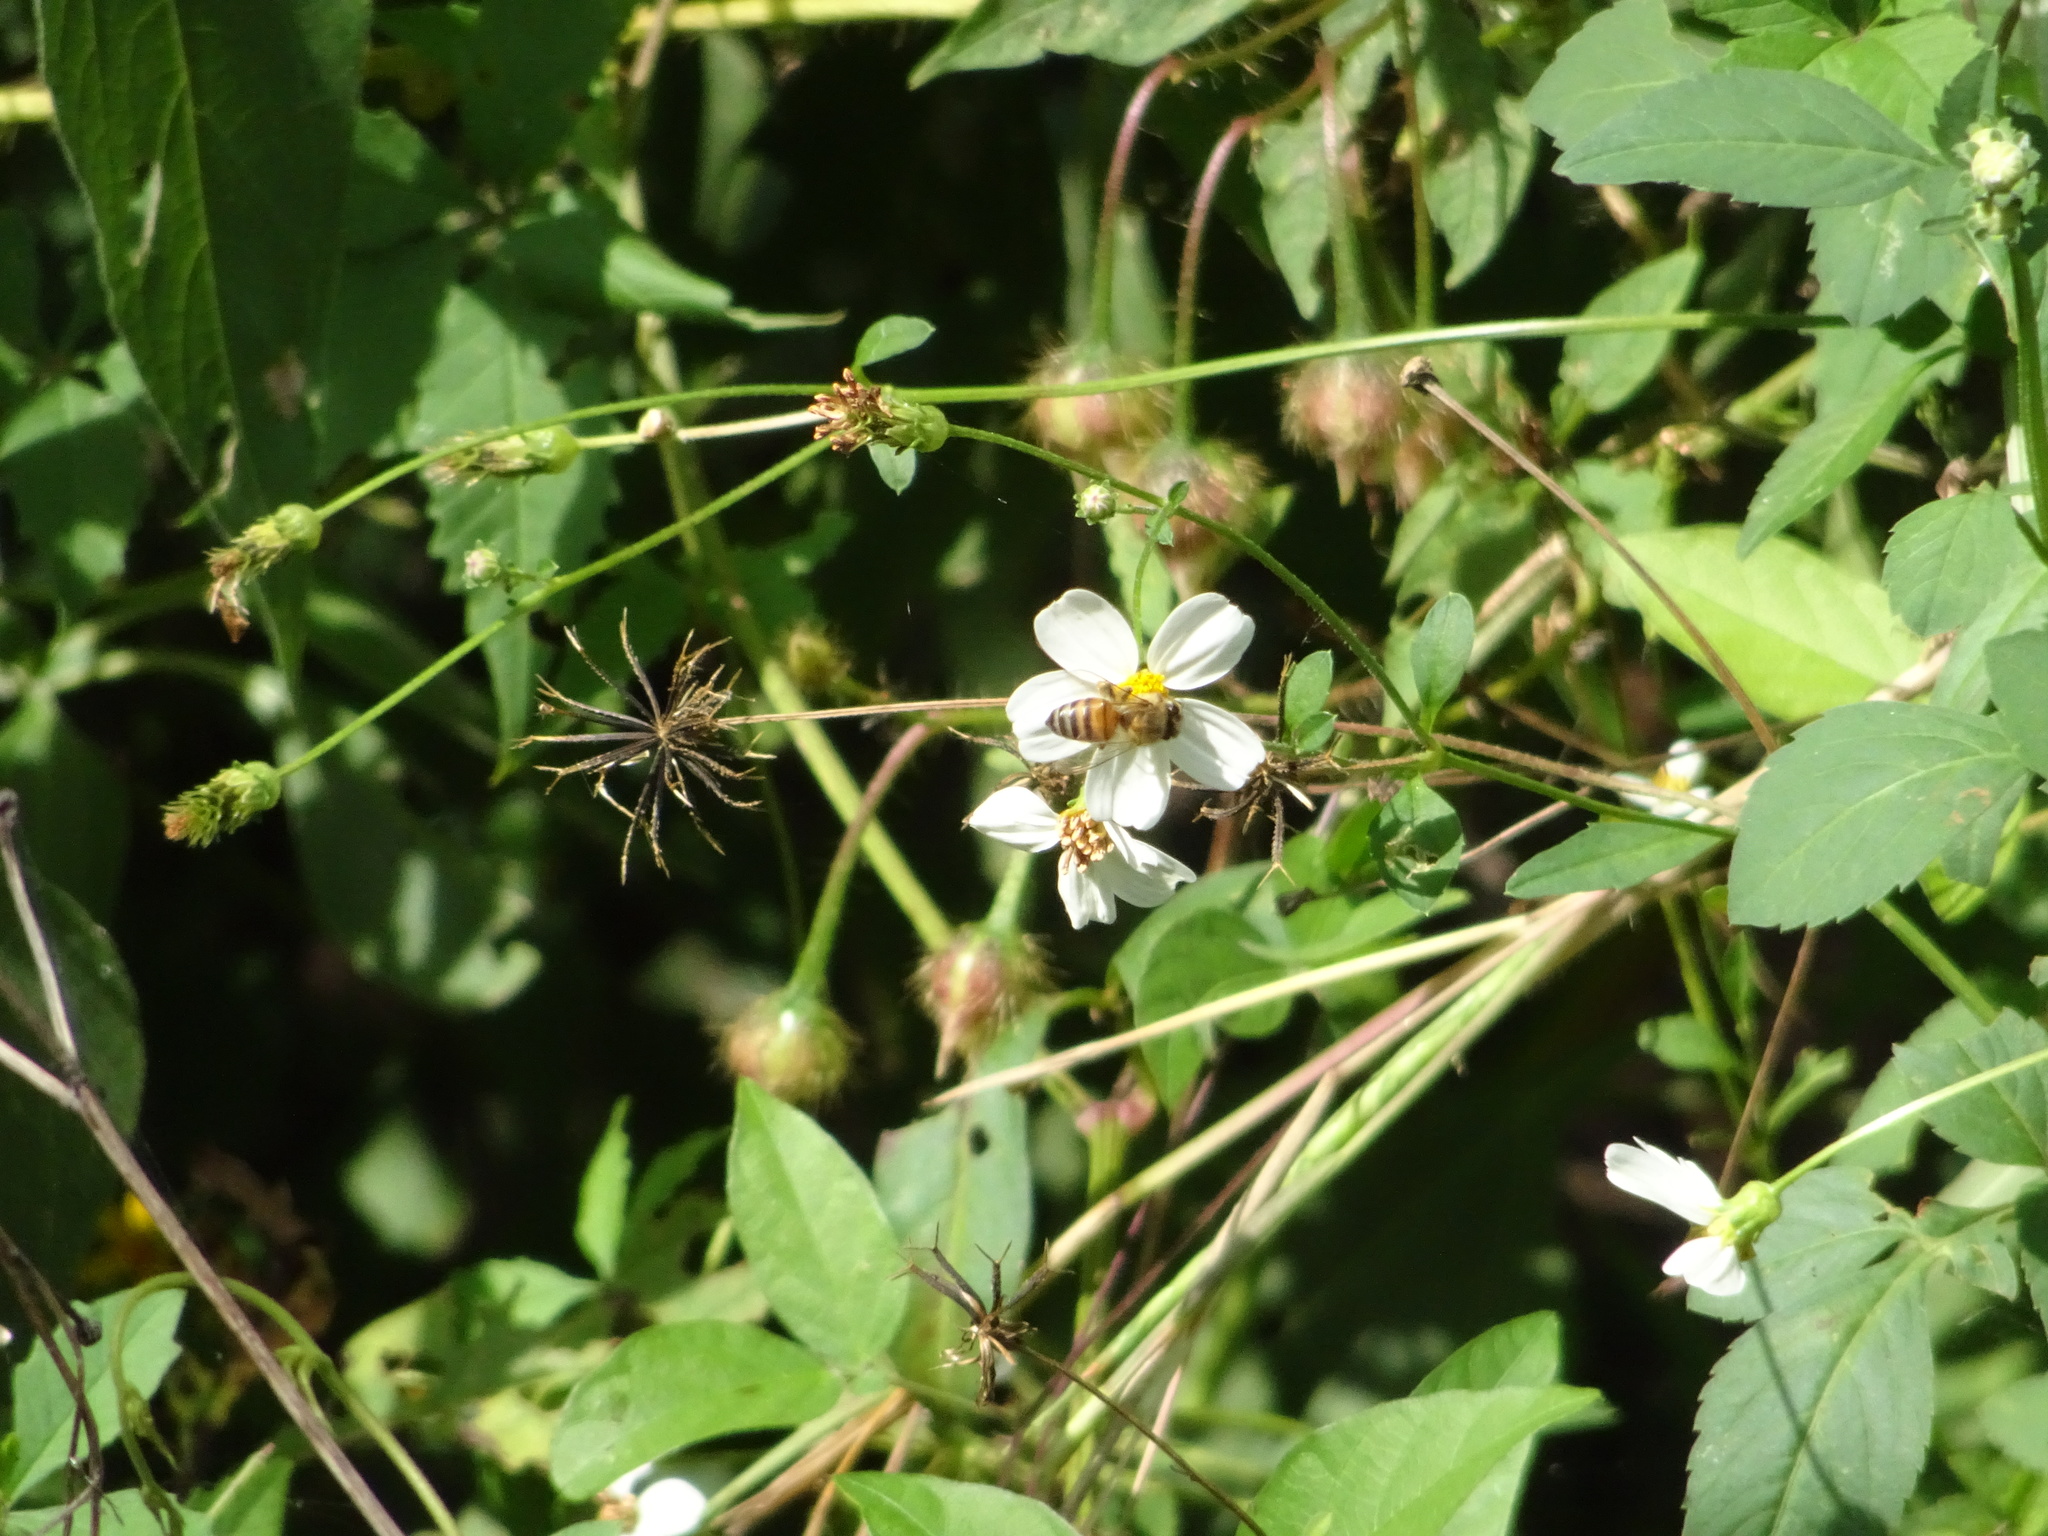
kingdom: Animalia
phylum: Arthropoda
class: Insecta
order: Hymenoptera
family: Apidae
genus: Apis
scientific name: Apis mellifera
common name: Honey bee
